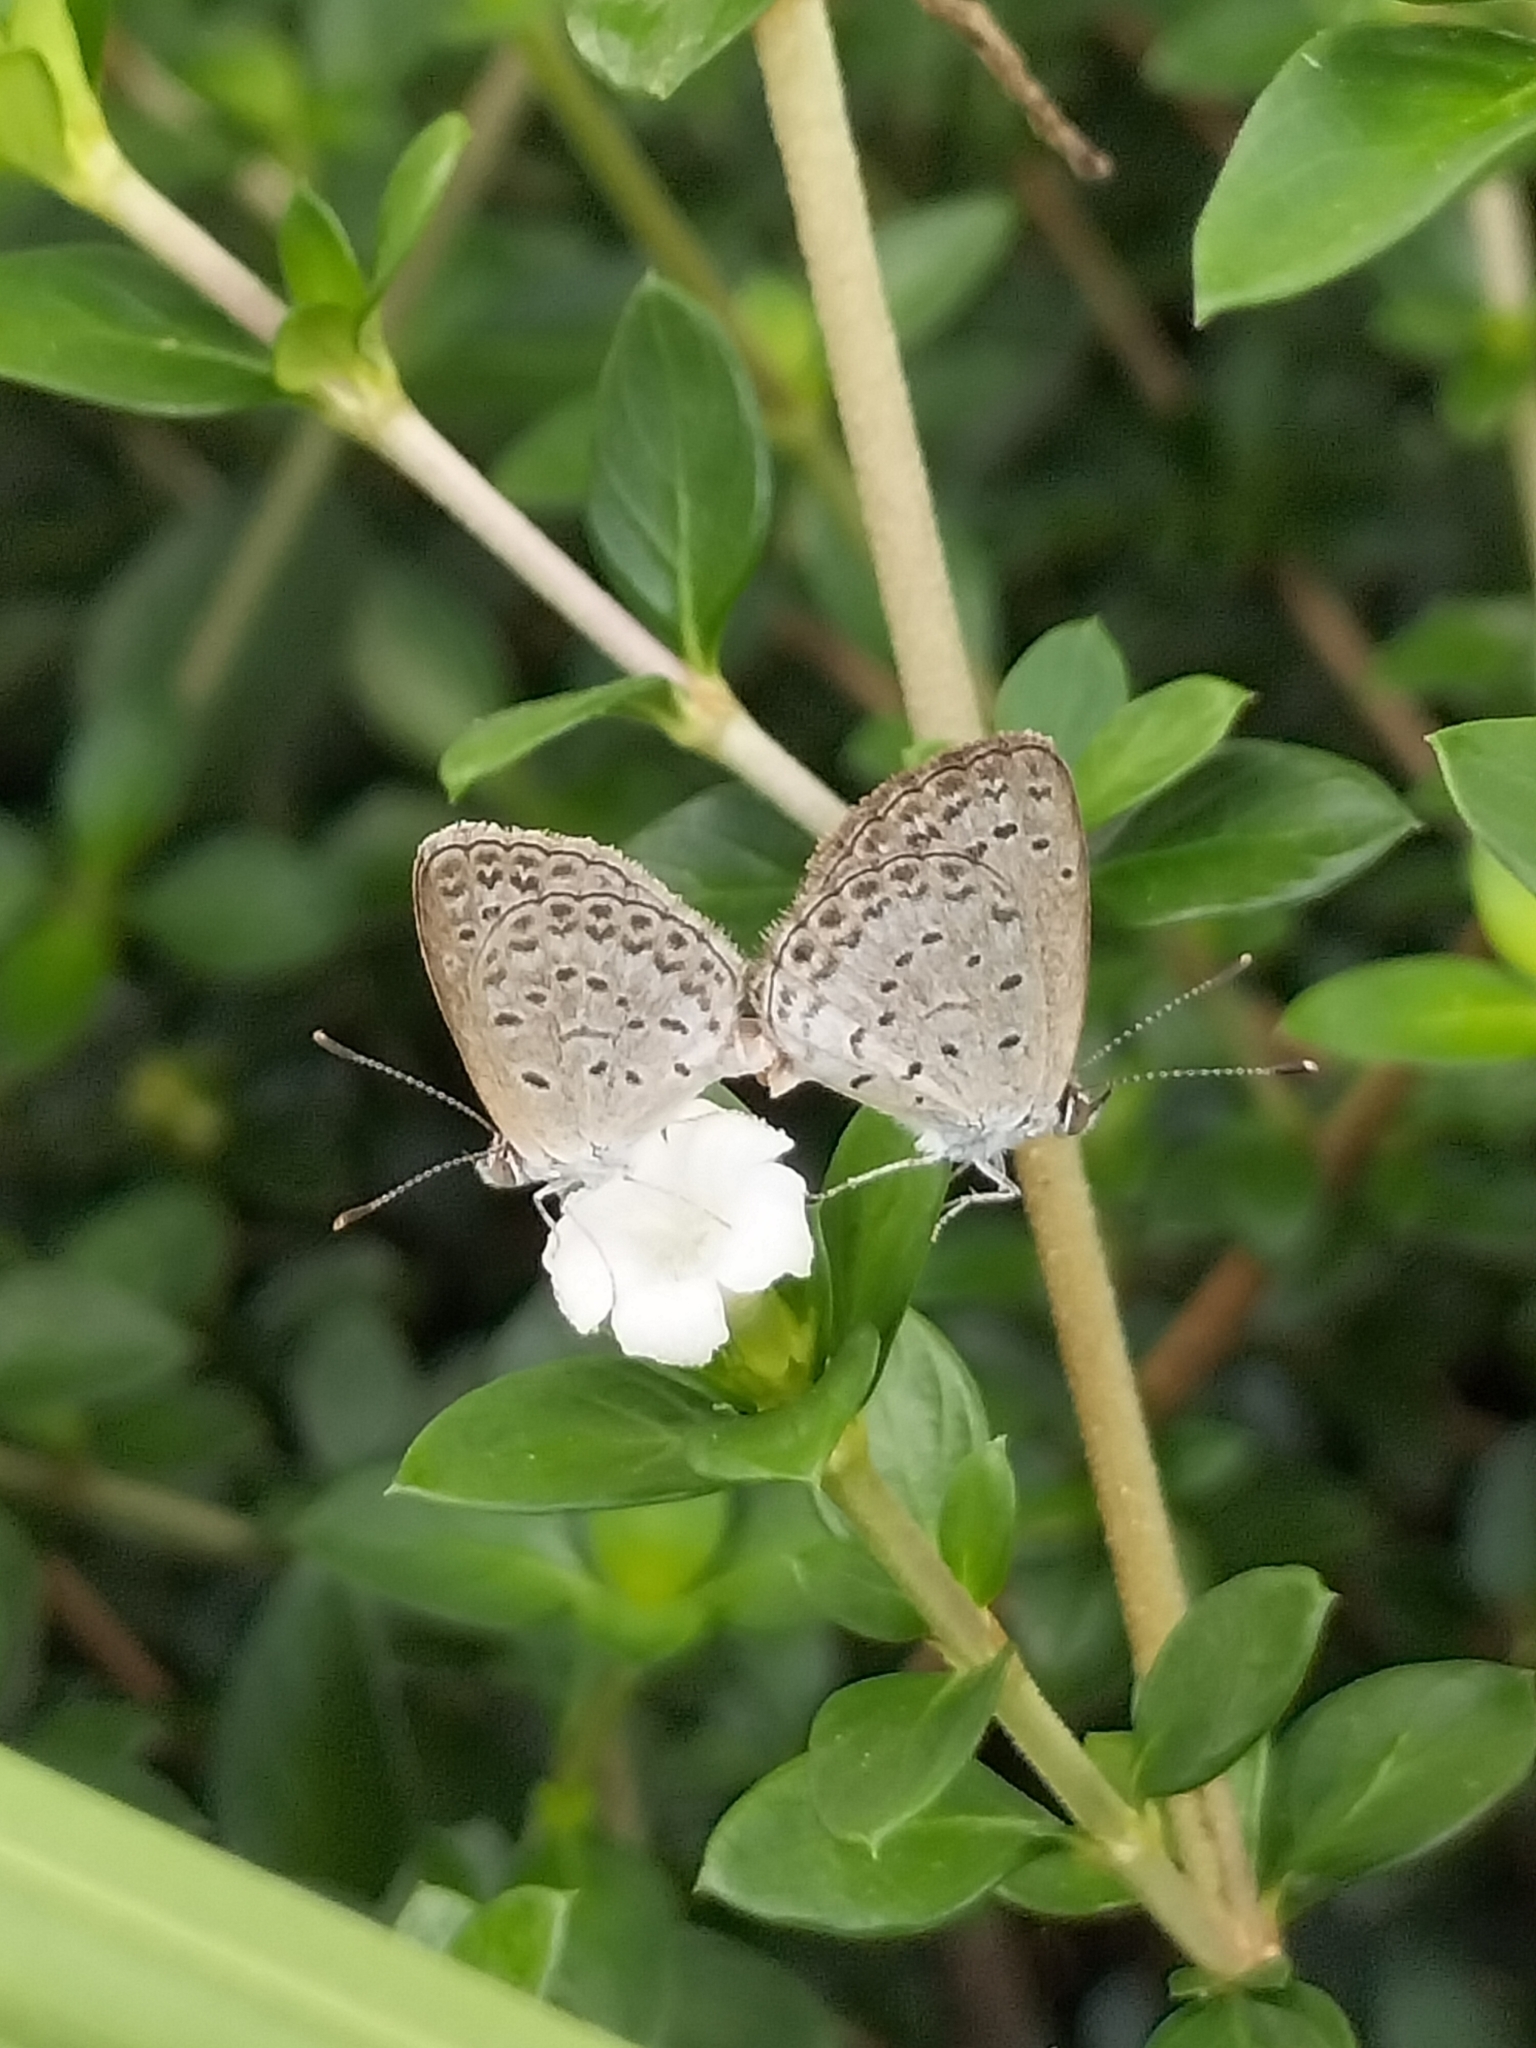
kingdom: Animalia
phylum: Arthropoda
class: Insecta
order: Lepidoptera
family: Lycaenidae
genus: Pseudozizeeria
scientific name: Pseudozizeeria maha
